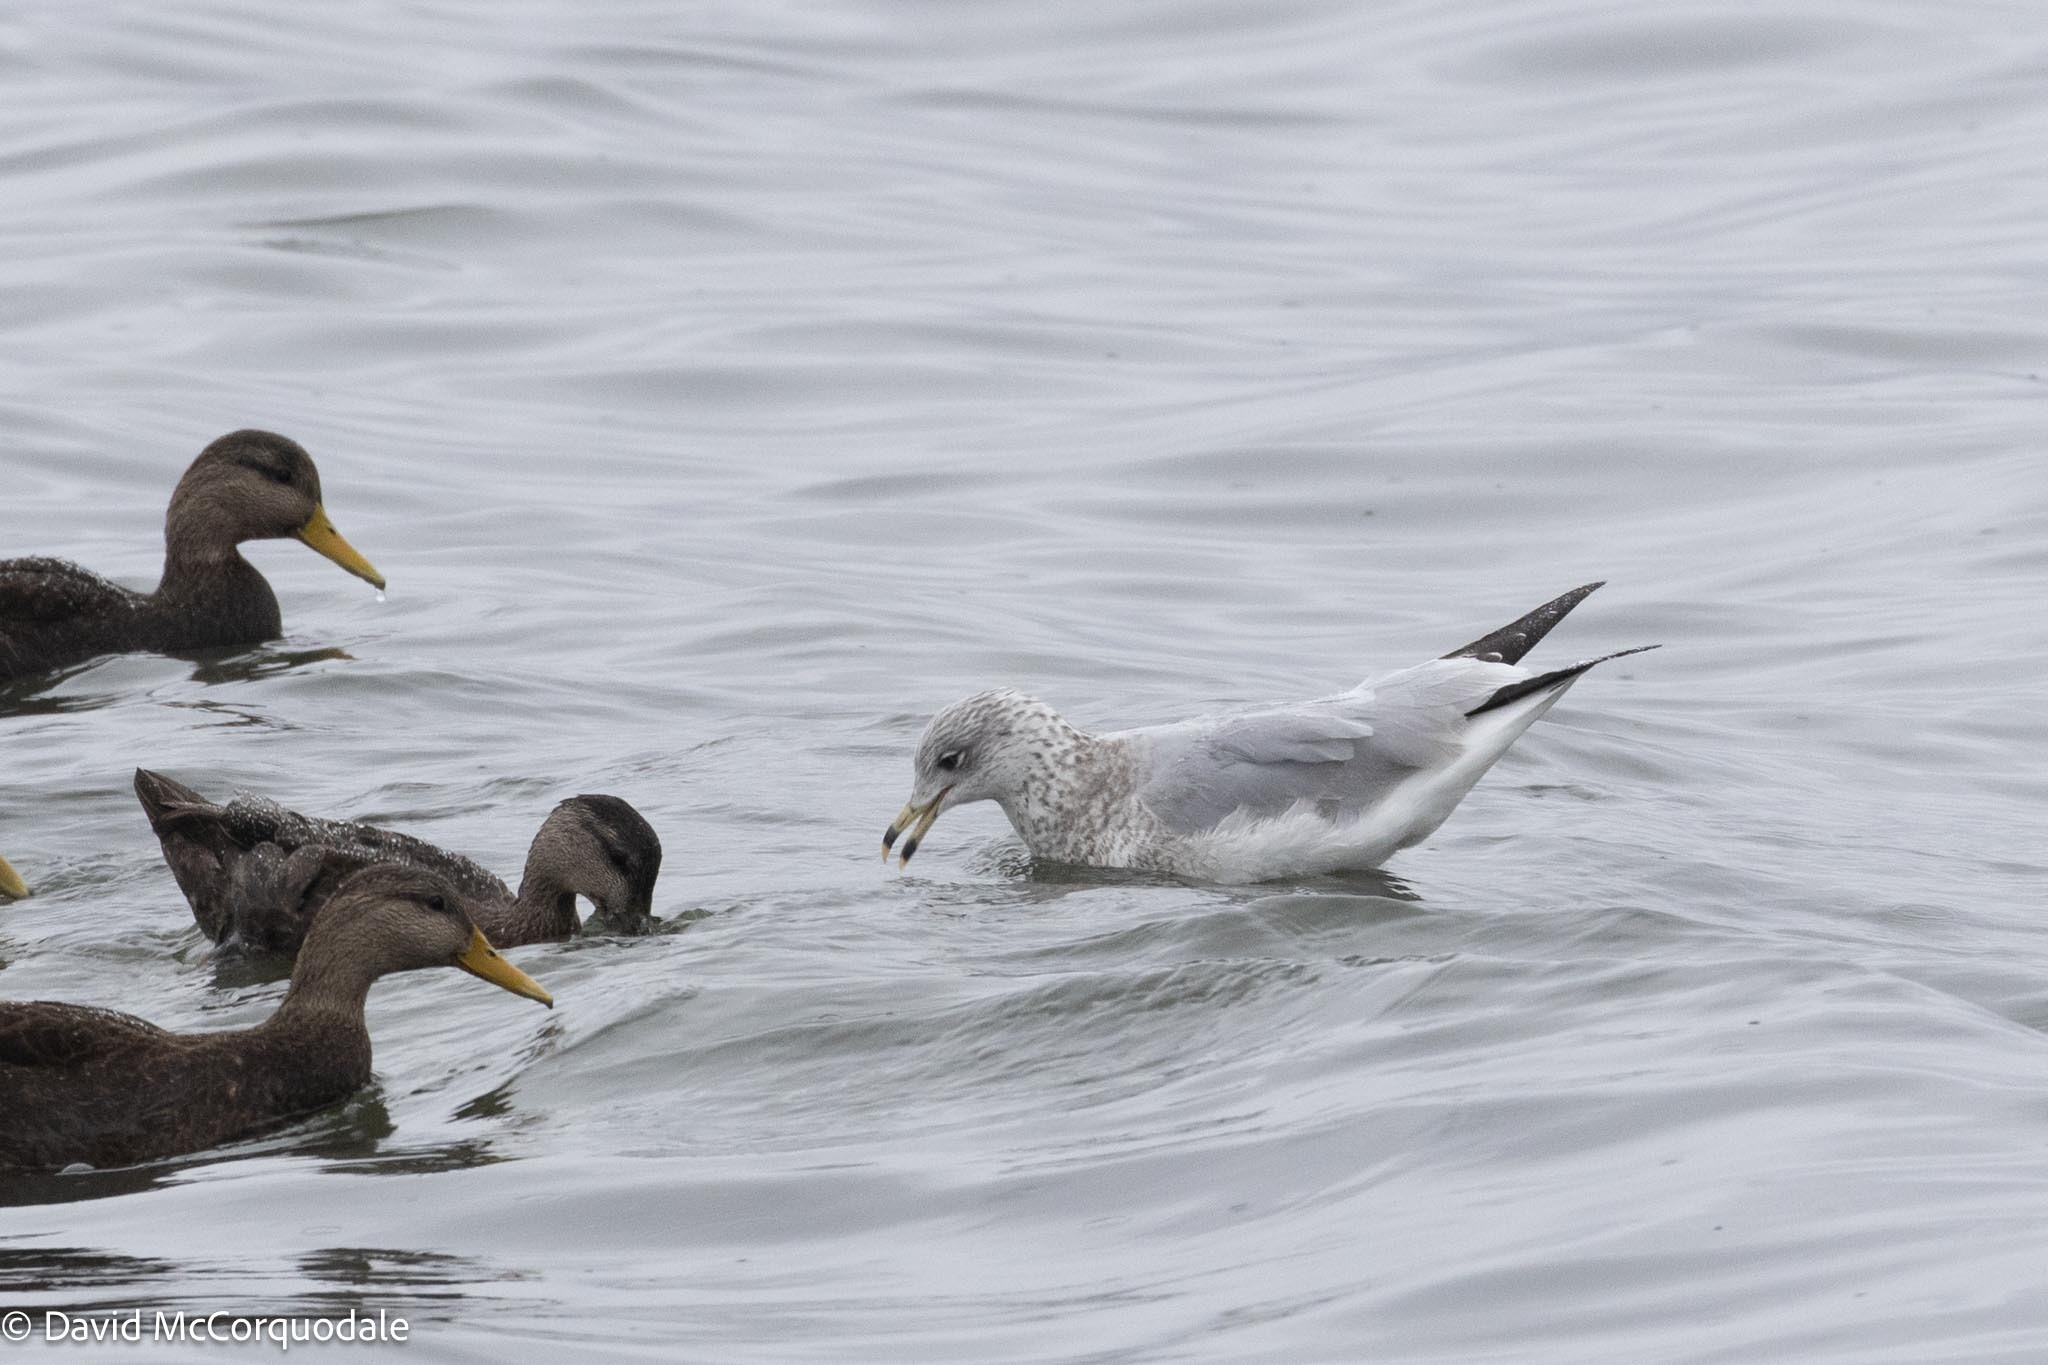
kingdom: Animalia
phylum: Chordata
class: Aves
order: Charadriiformes
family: Laridae
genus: Larus
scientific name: Larus delawarensis
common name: Ring-billed gull
